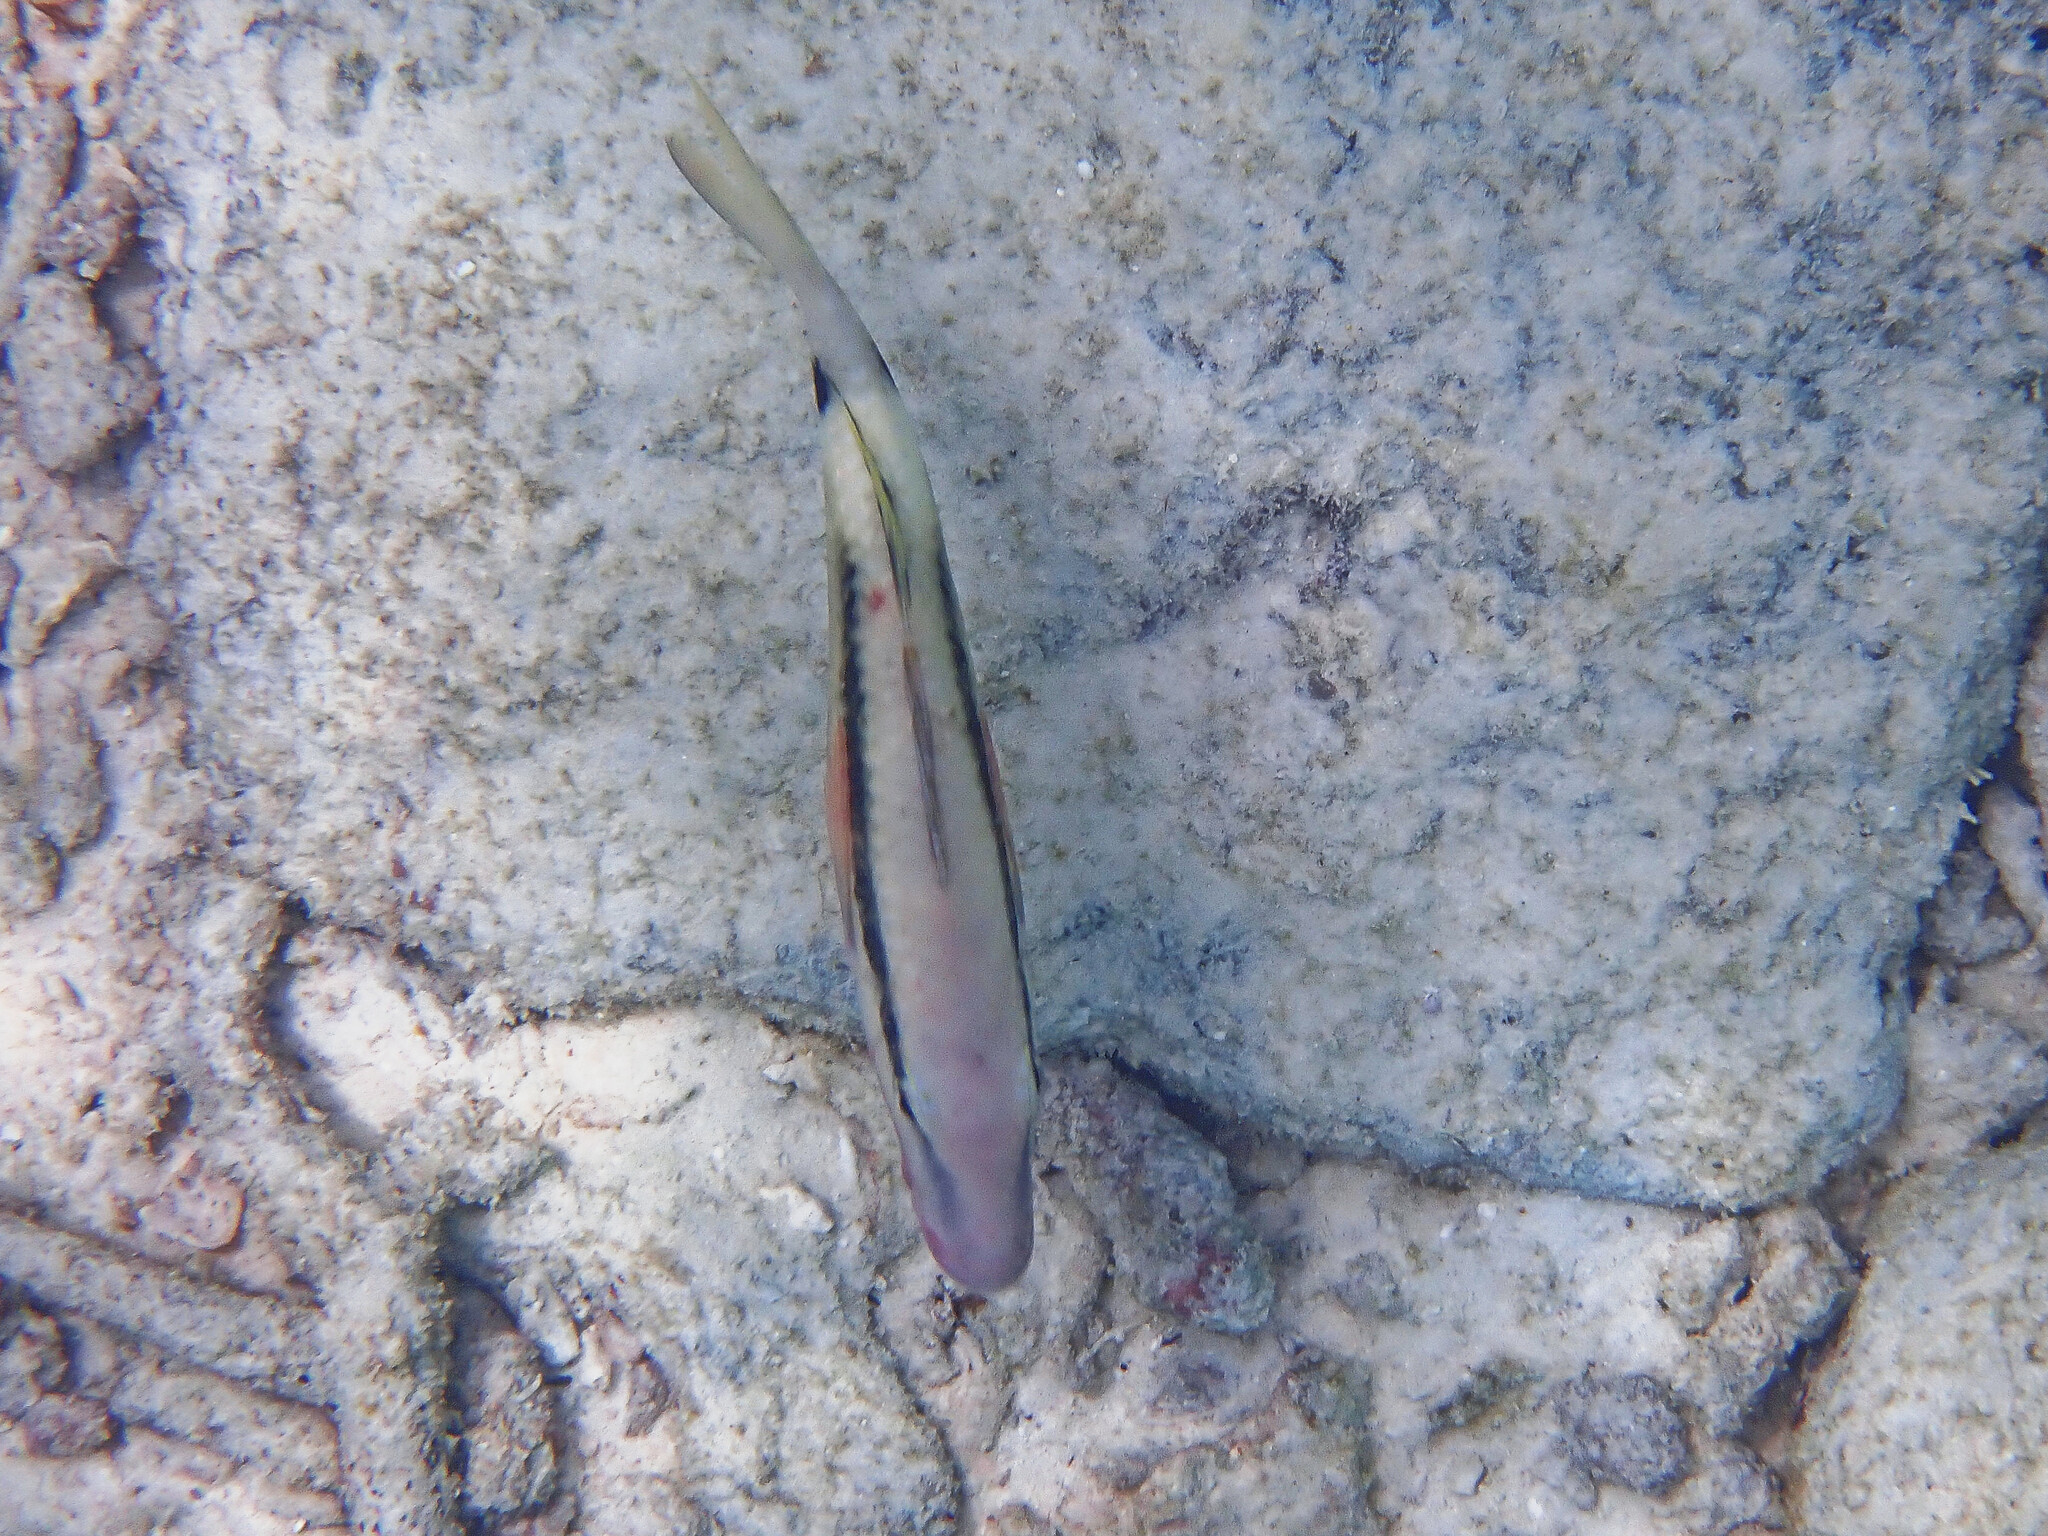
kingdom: Animalia
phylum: Chordata
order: Perciformes
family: Mullidae
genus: Parupeneus
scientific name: Parupeneus macronemus
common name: Long-barbel goatfish
